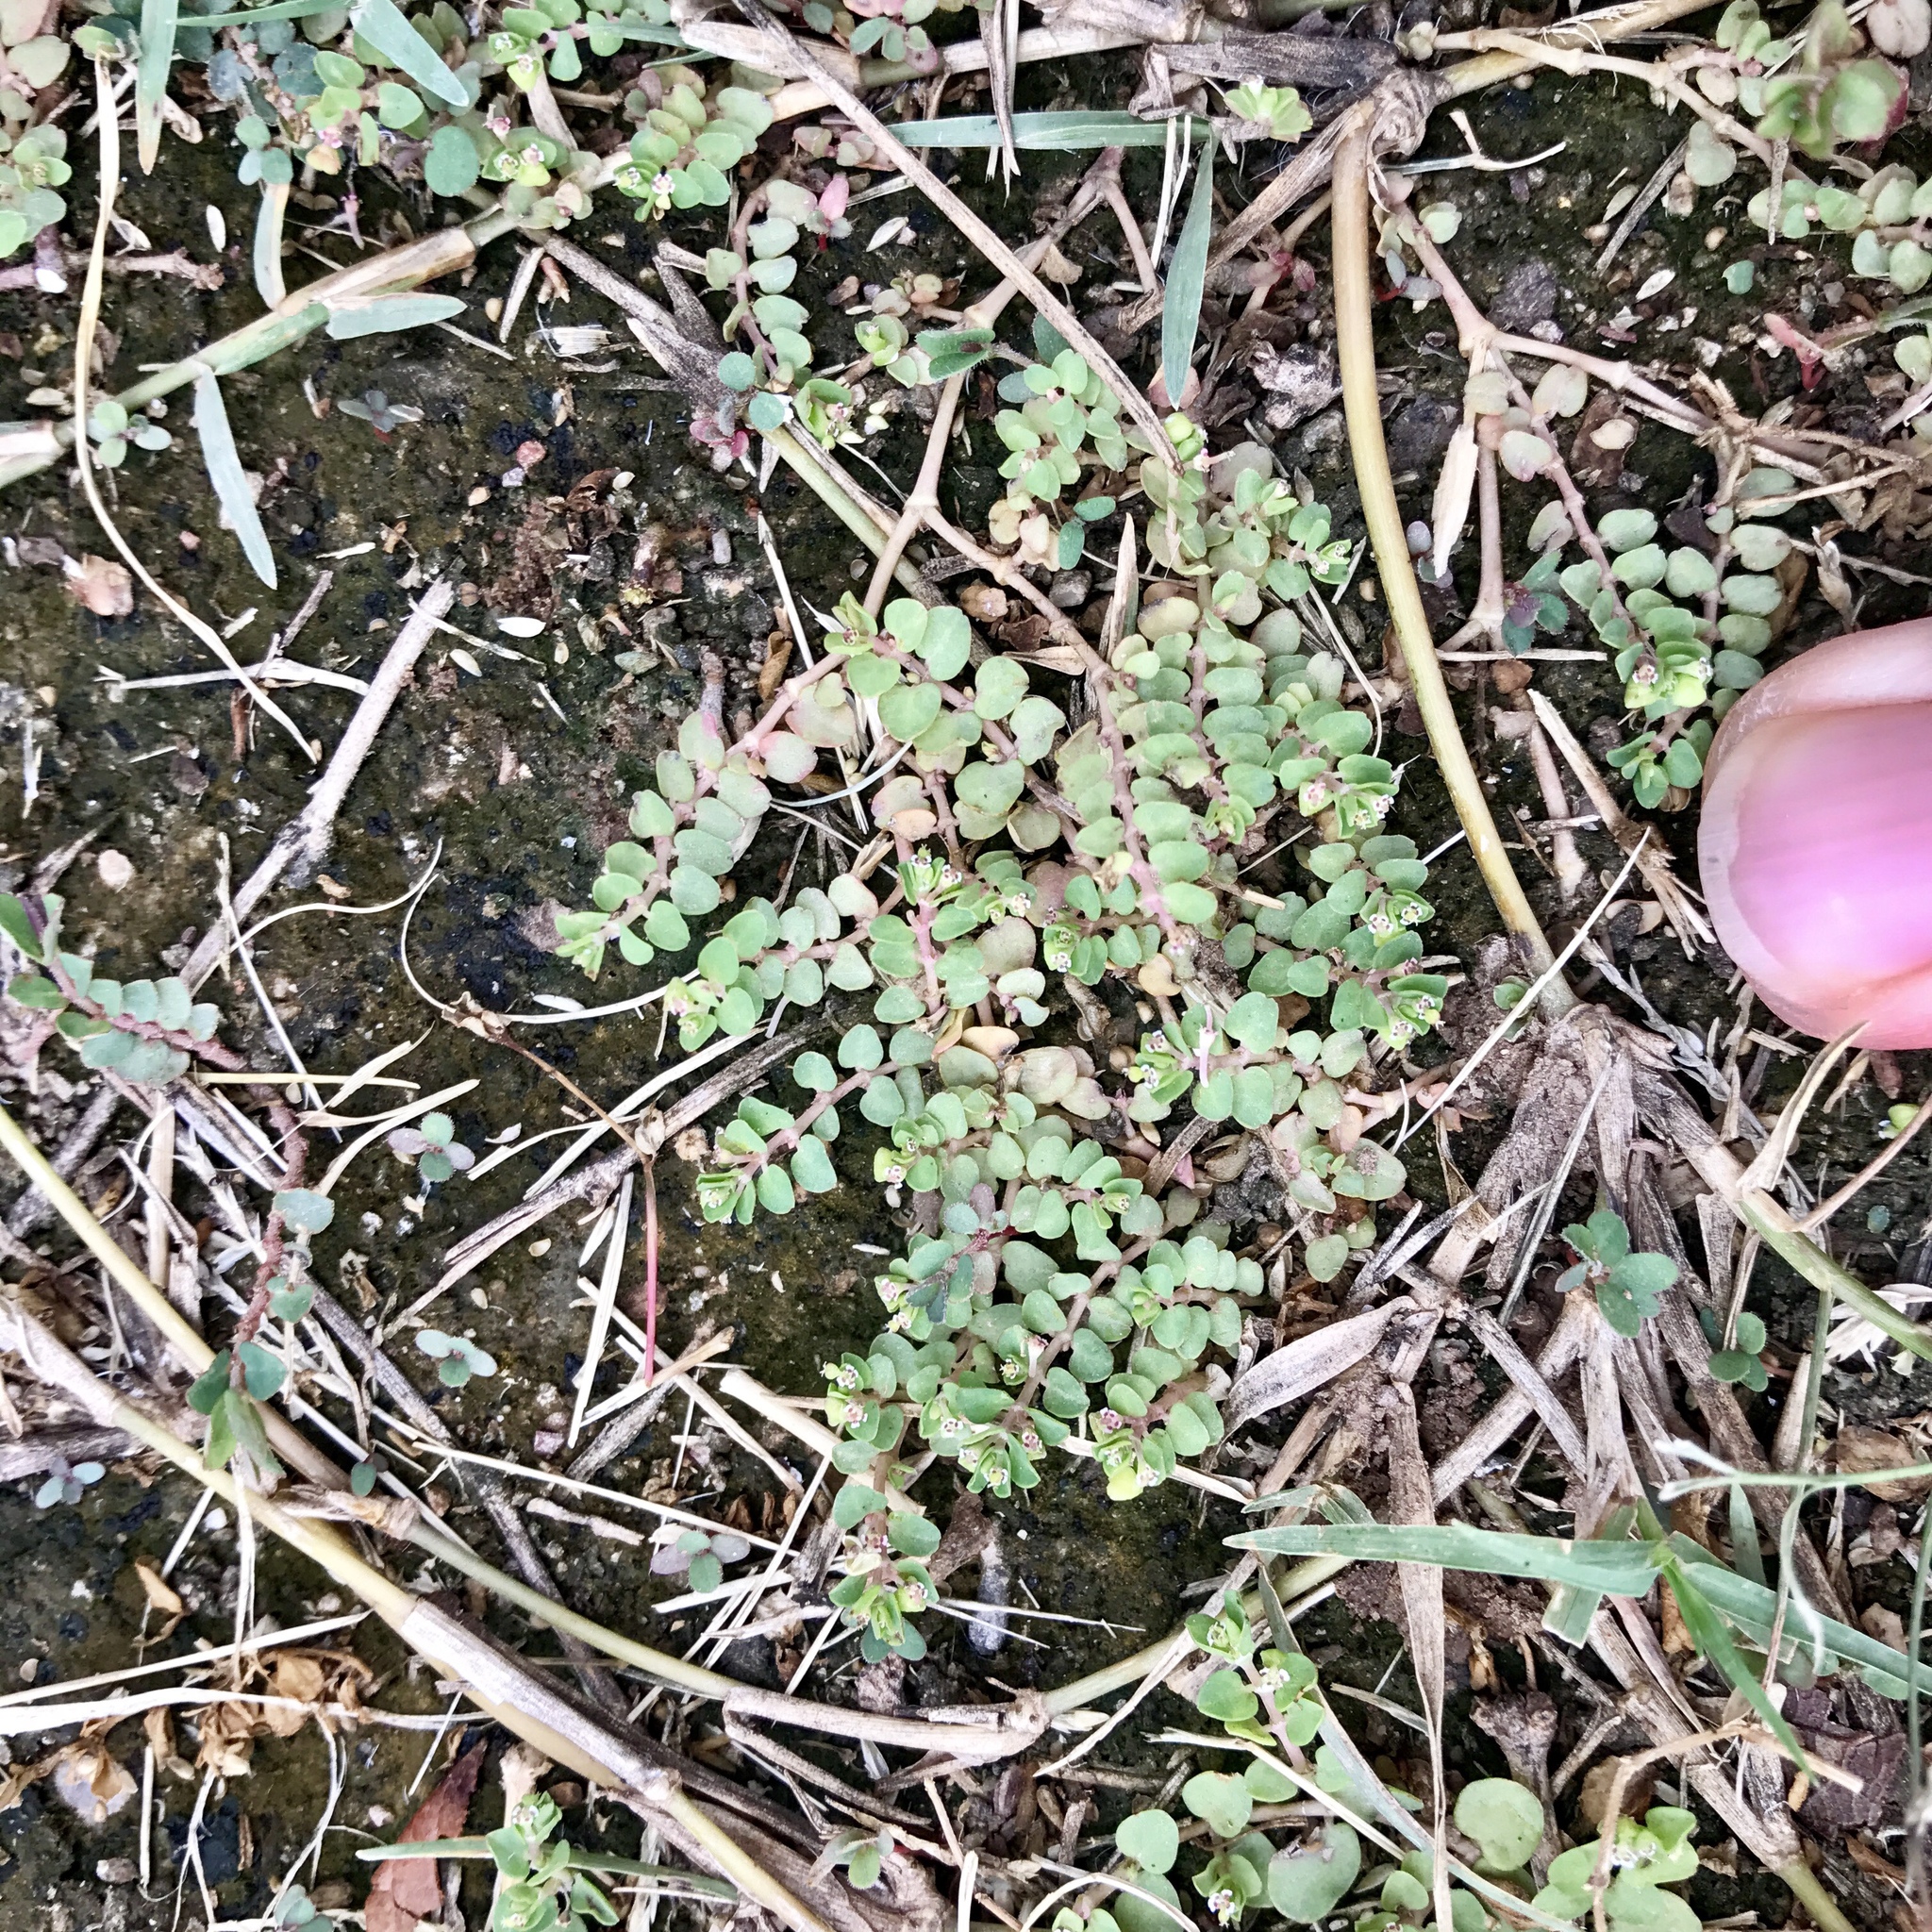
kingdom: Plantae
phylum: Tracheophyta
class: Magnoliopsida
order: Malpighiales
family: Euphorbiaceae
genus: Euphorbia
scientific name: Euphorbia serpens
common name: Matted sandmat
